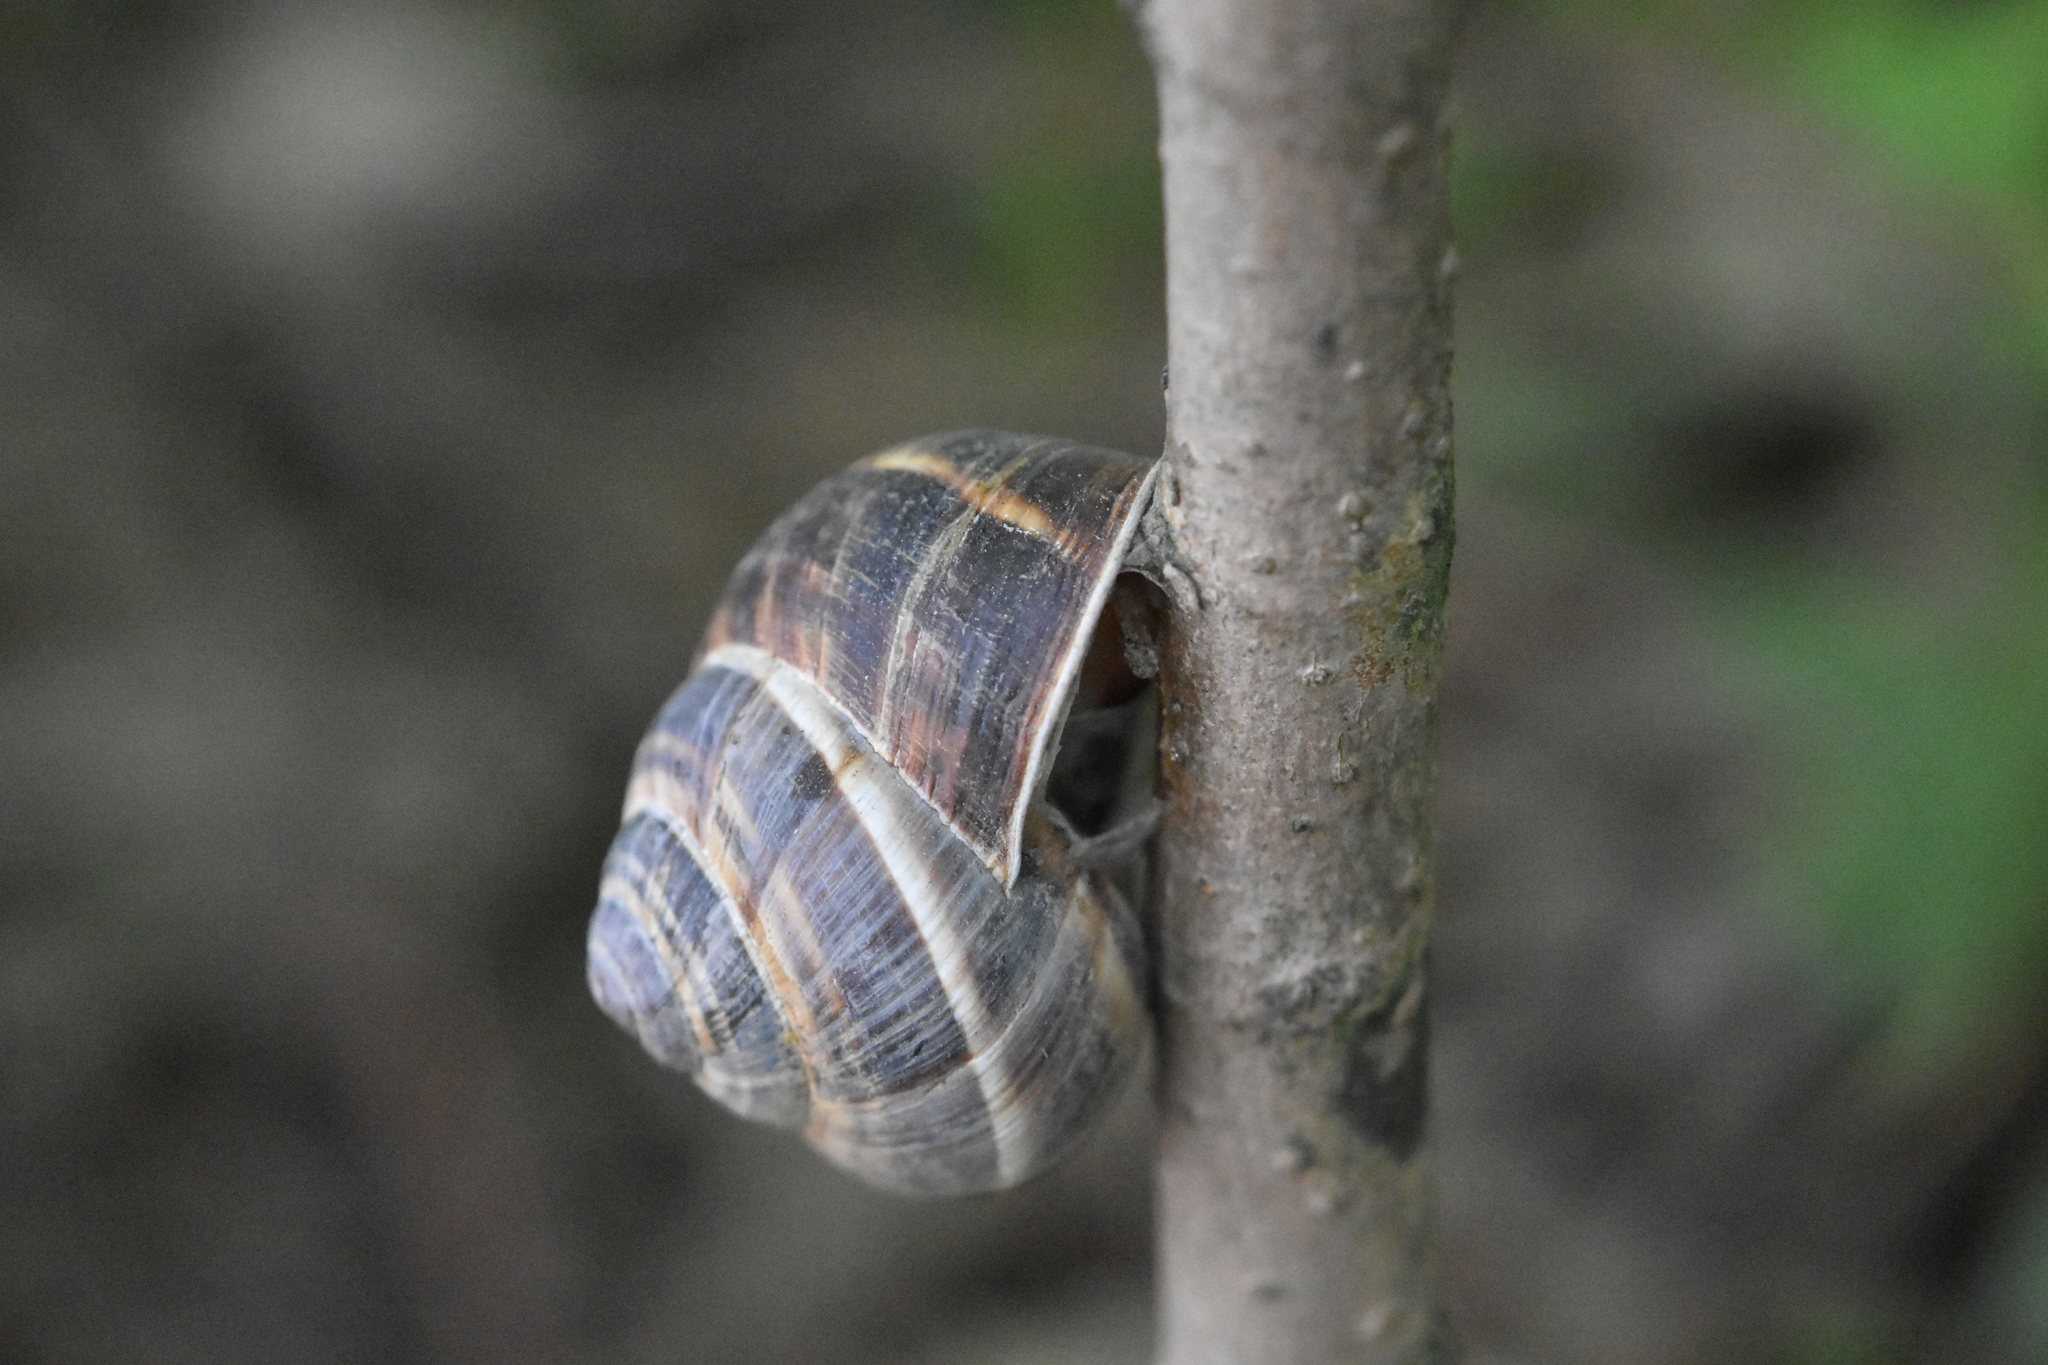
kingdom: Animalia
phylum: Mollusca
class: Gastropoda
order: Stylommatophora
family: Helicidae
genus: Helix
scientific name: Helix lucorum
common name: Turkish snail
